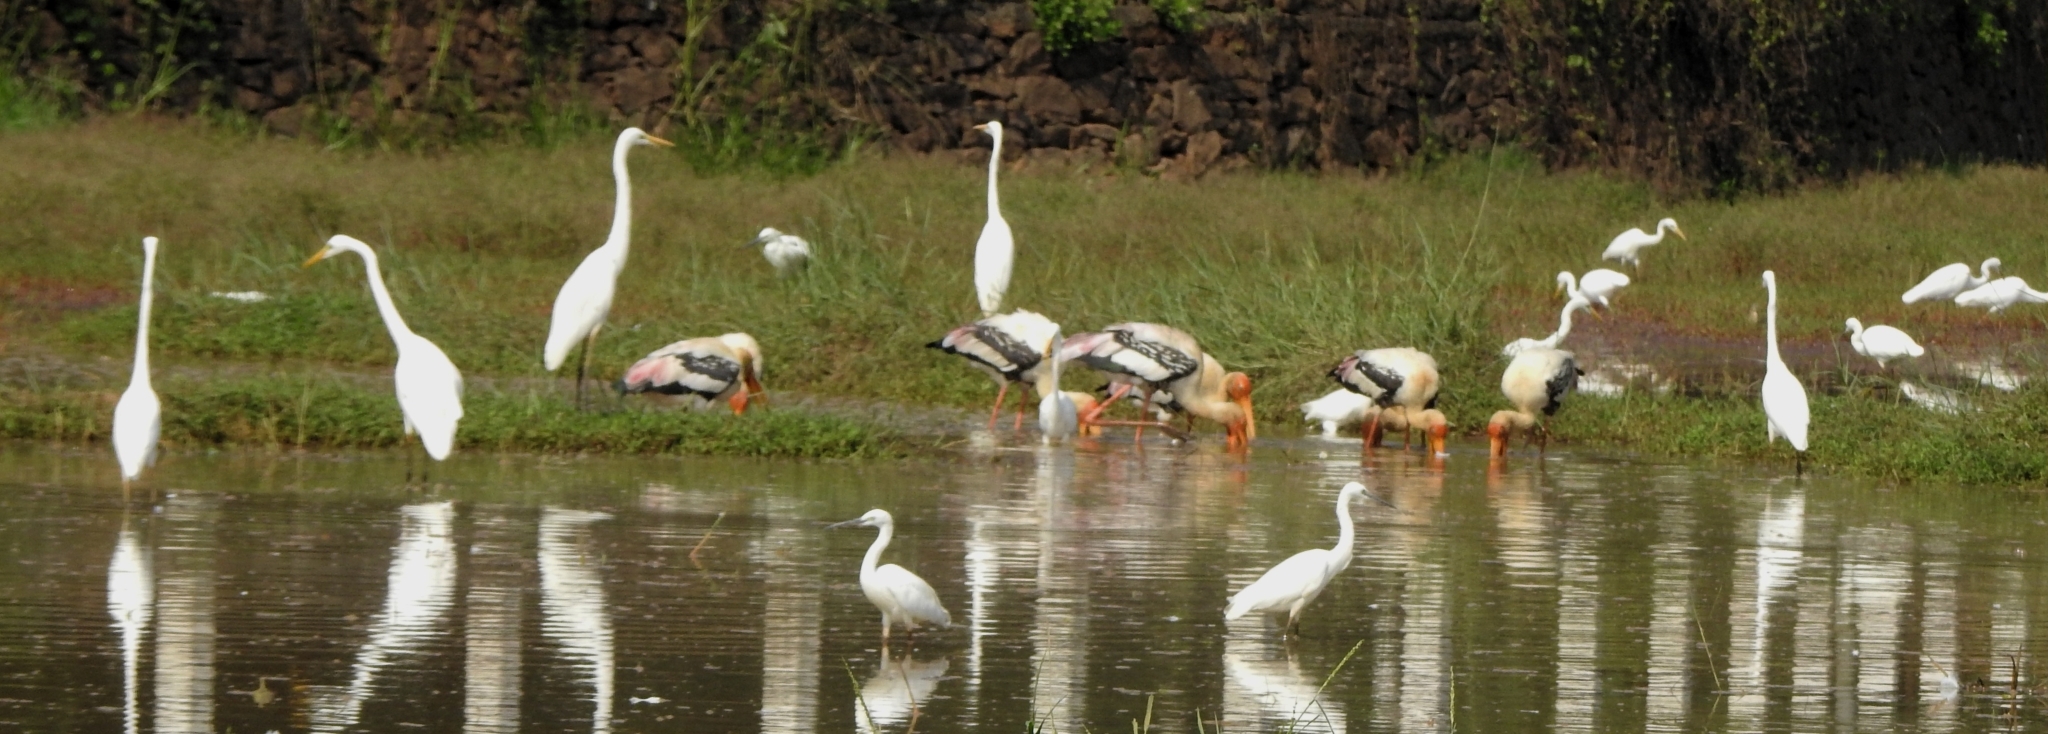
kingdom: Animalia
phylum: Chordata
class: Aves
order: Ciconiiformes
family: Ciconiidae
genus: Mycteria
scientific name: Mycteria leucocephala
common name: Painted stork
